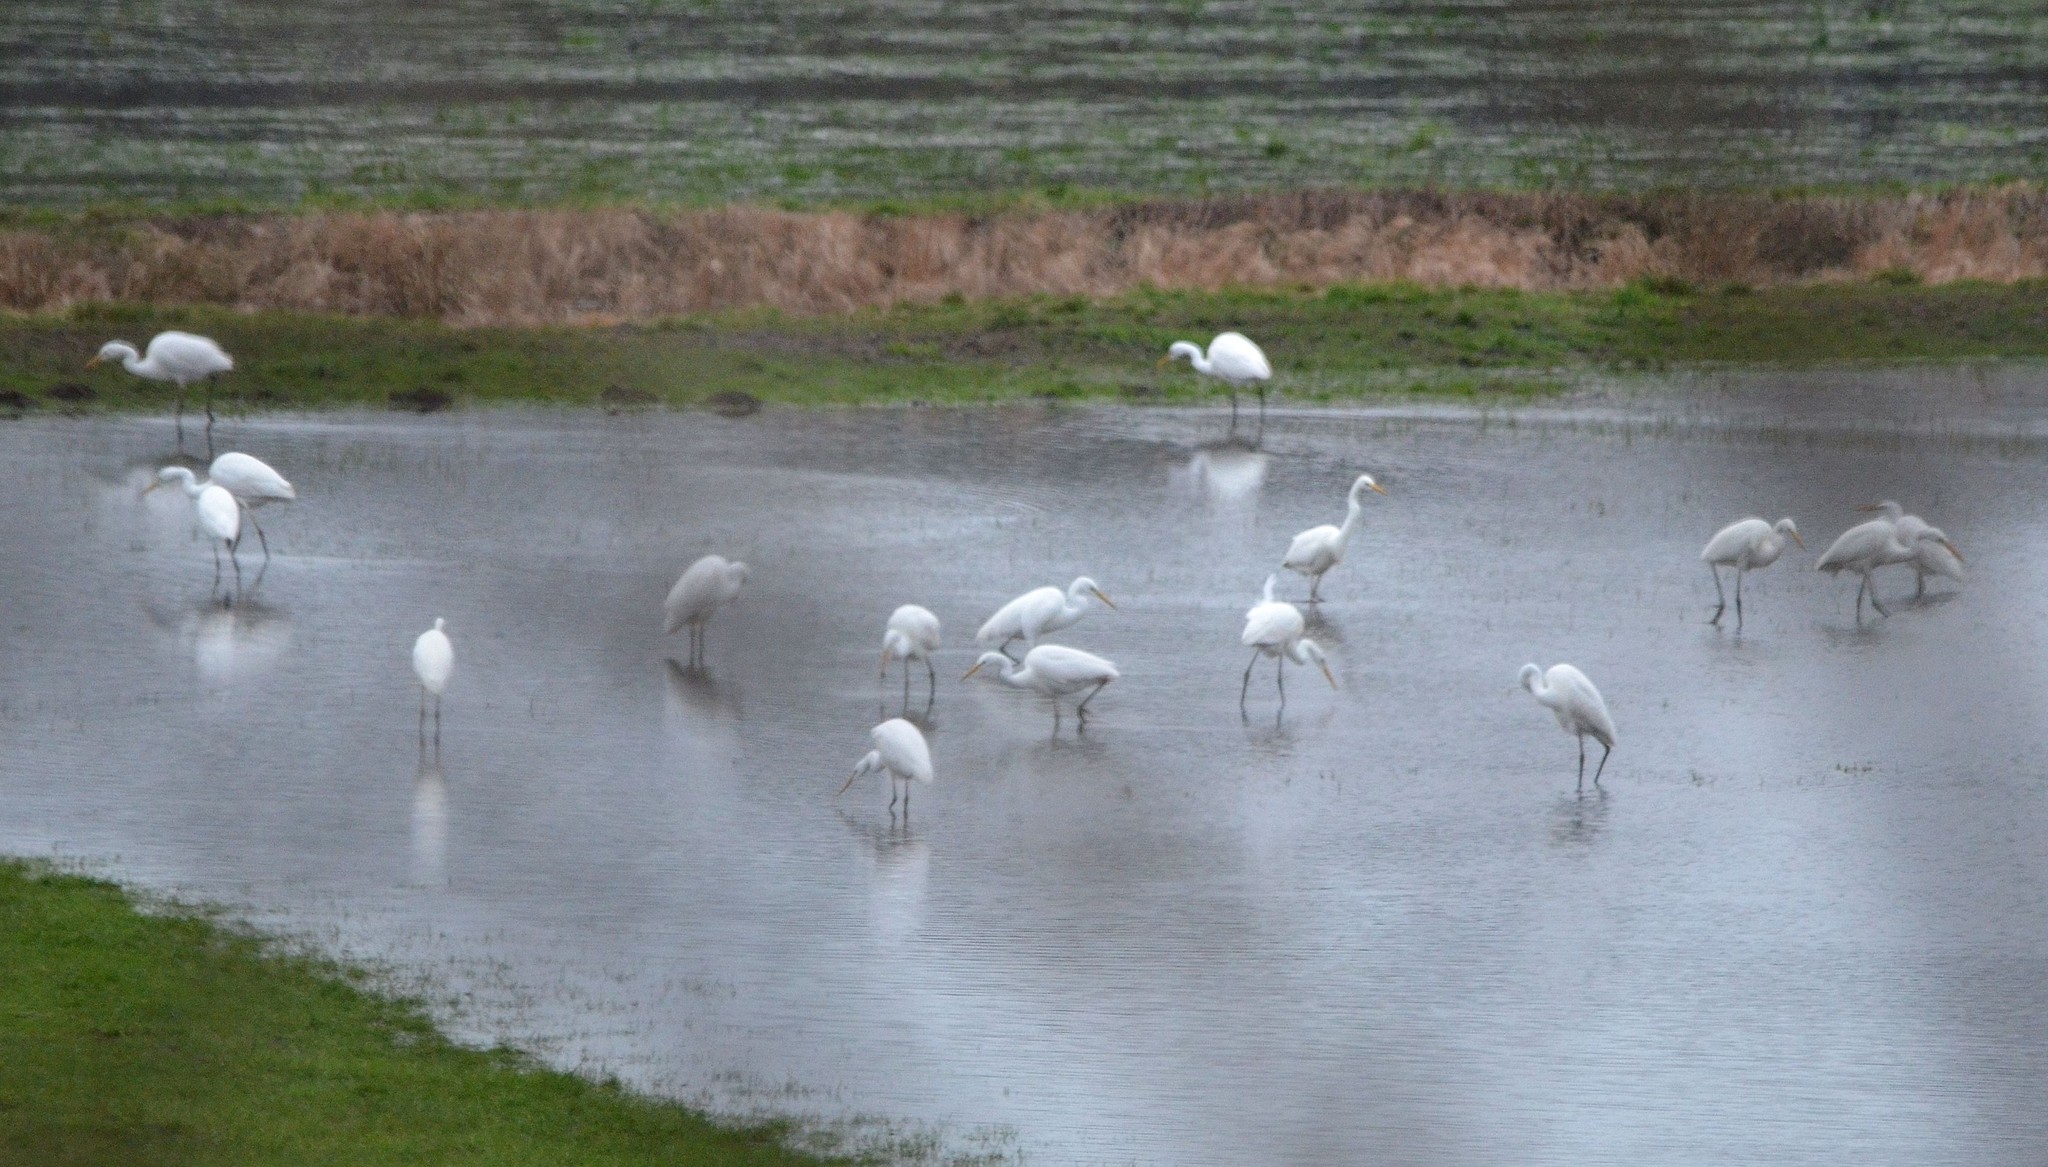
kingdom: Animalia
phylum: Chordata
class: Aves
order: Pelecaniformes
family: Ardeidae
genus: Ardea
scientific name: Ardea alba
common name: Great egret
